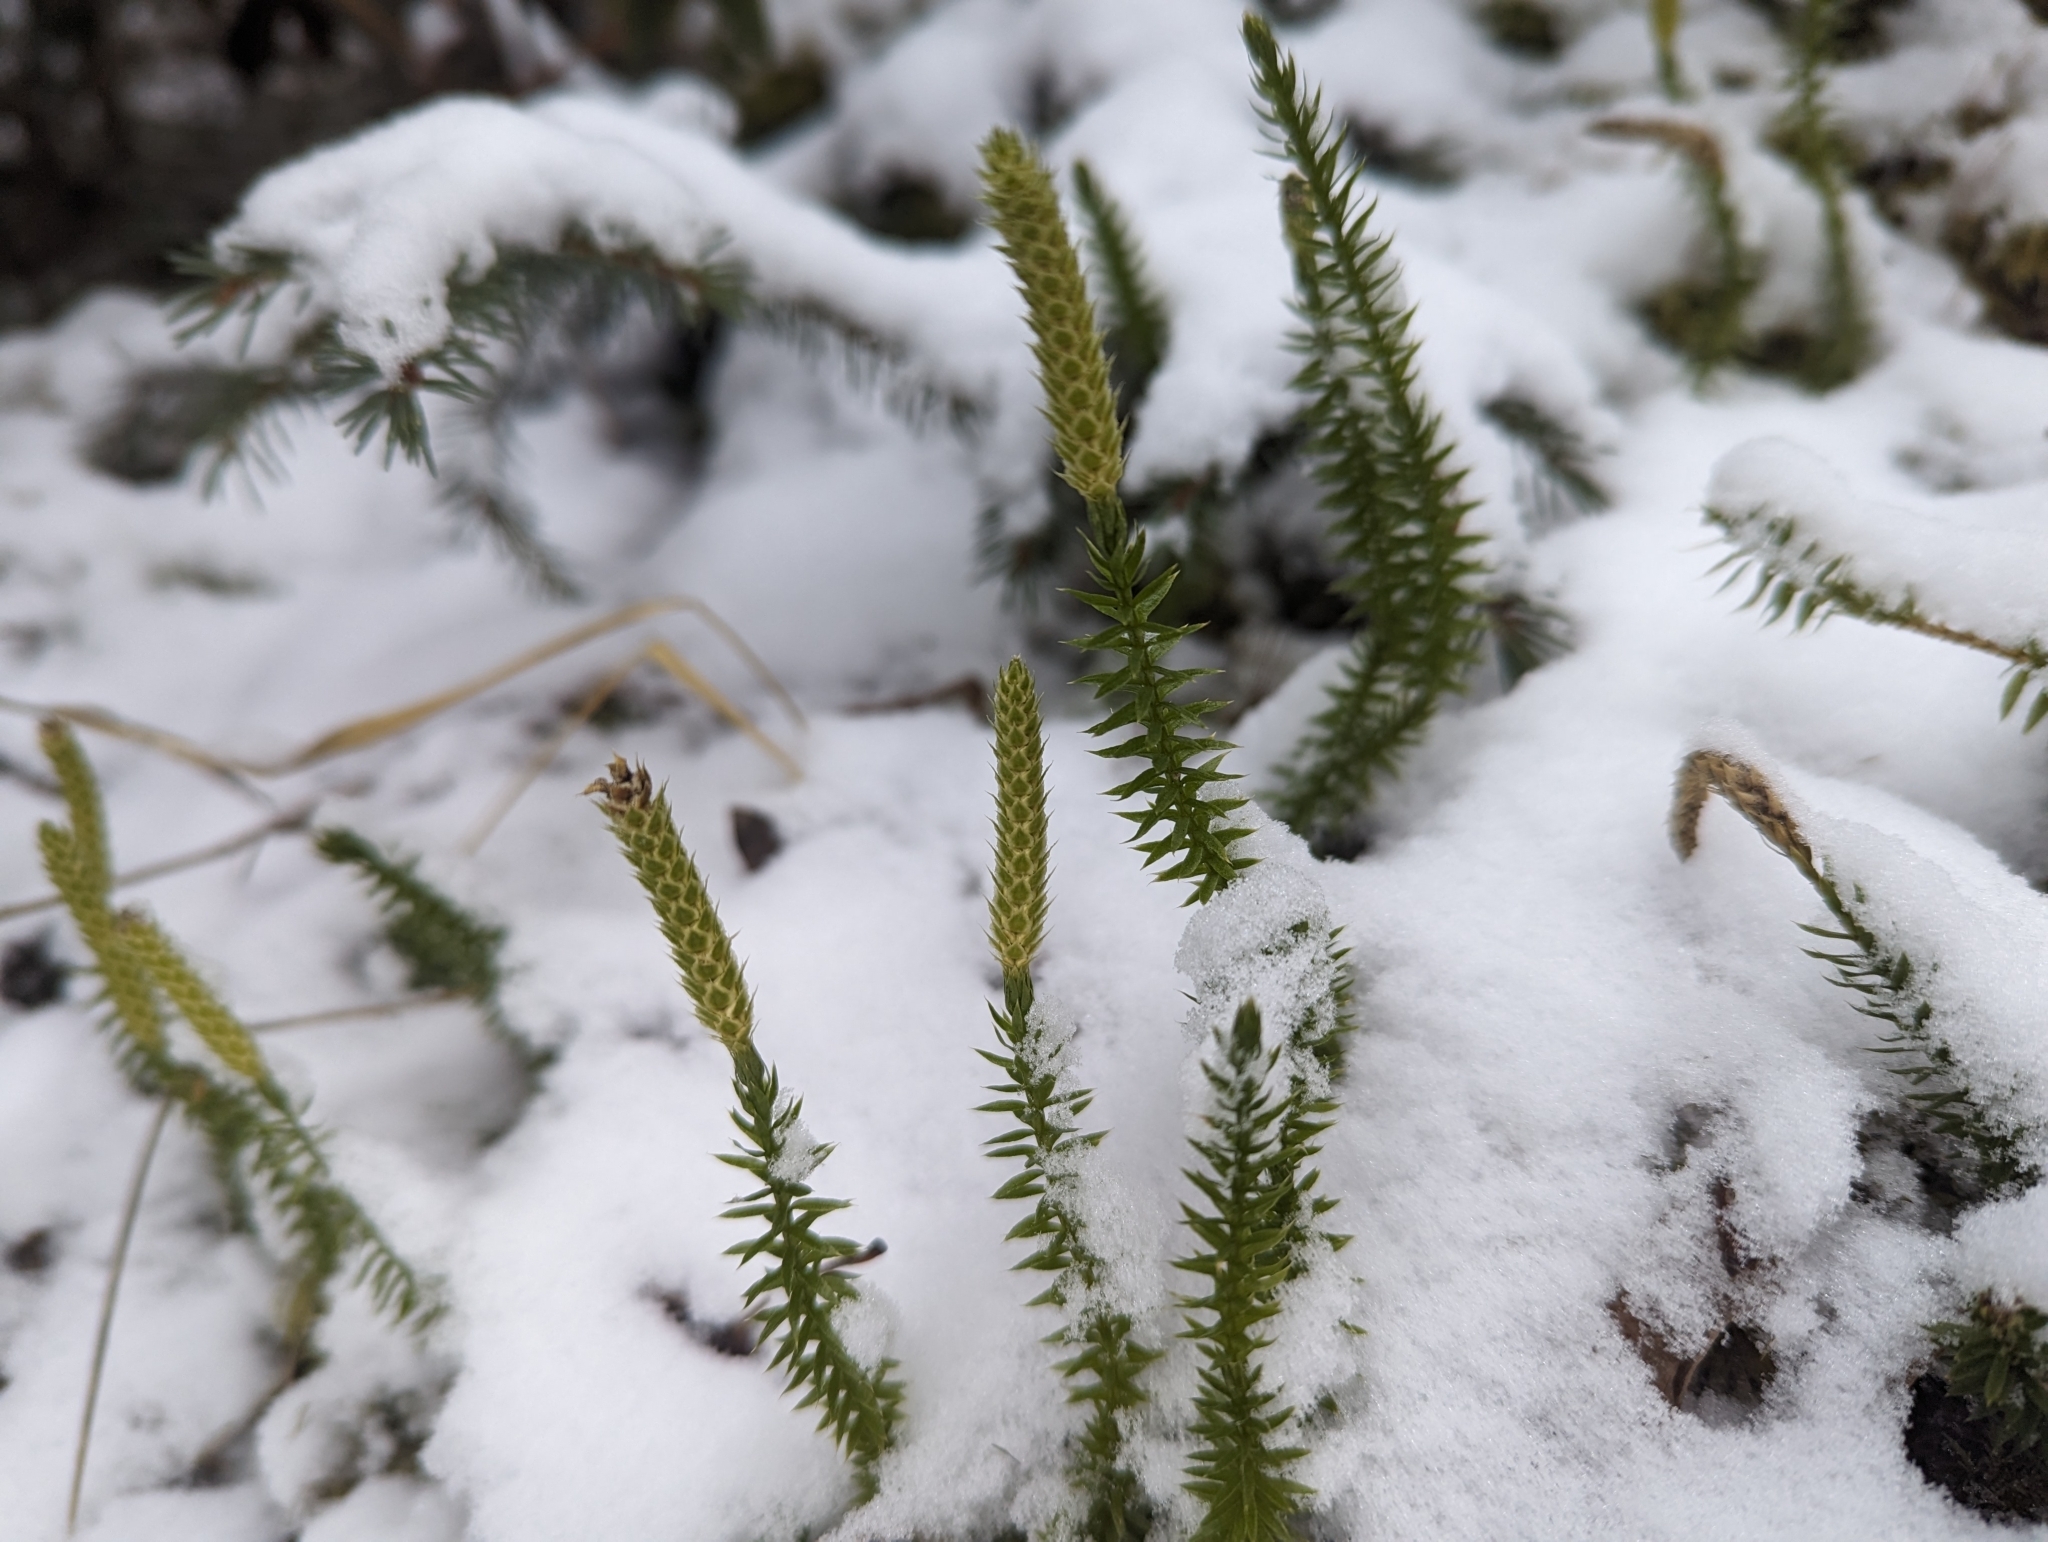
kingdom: Plantae
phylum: Tracheophyta
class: Lycopodiopsida
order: Lycopodiales
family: Lycopodiaceae
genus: Spinulum
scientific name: Spinulum annotinum
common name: Interrupted club-moss
